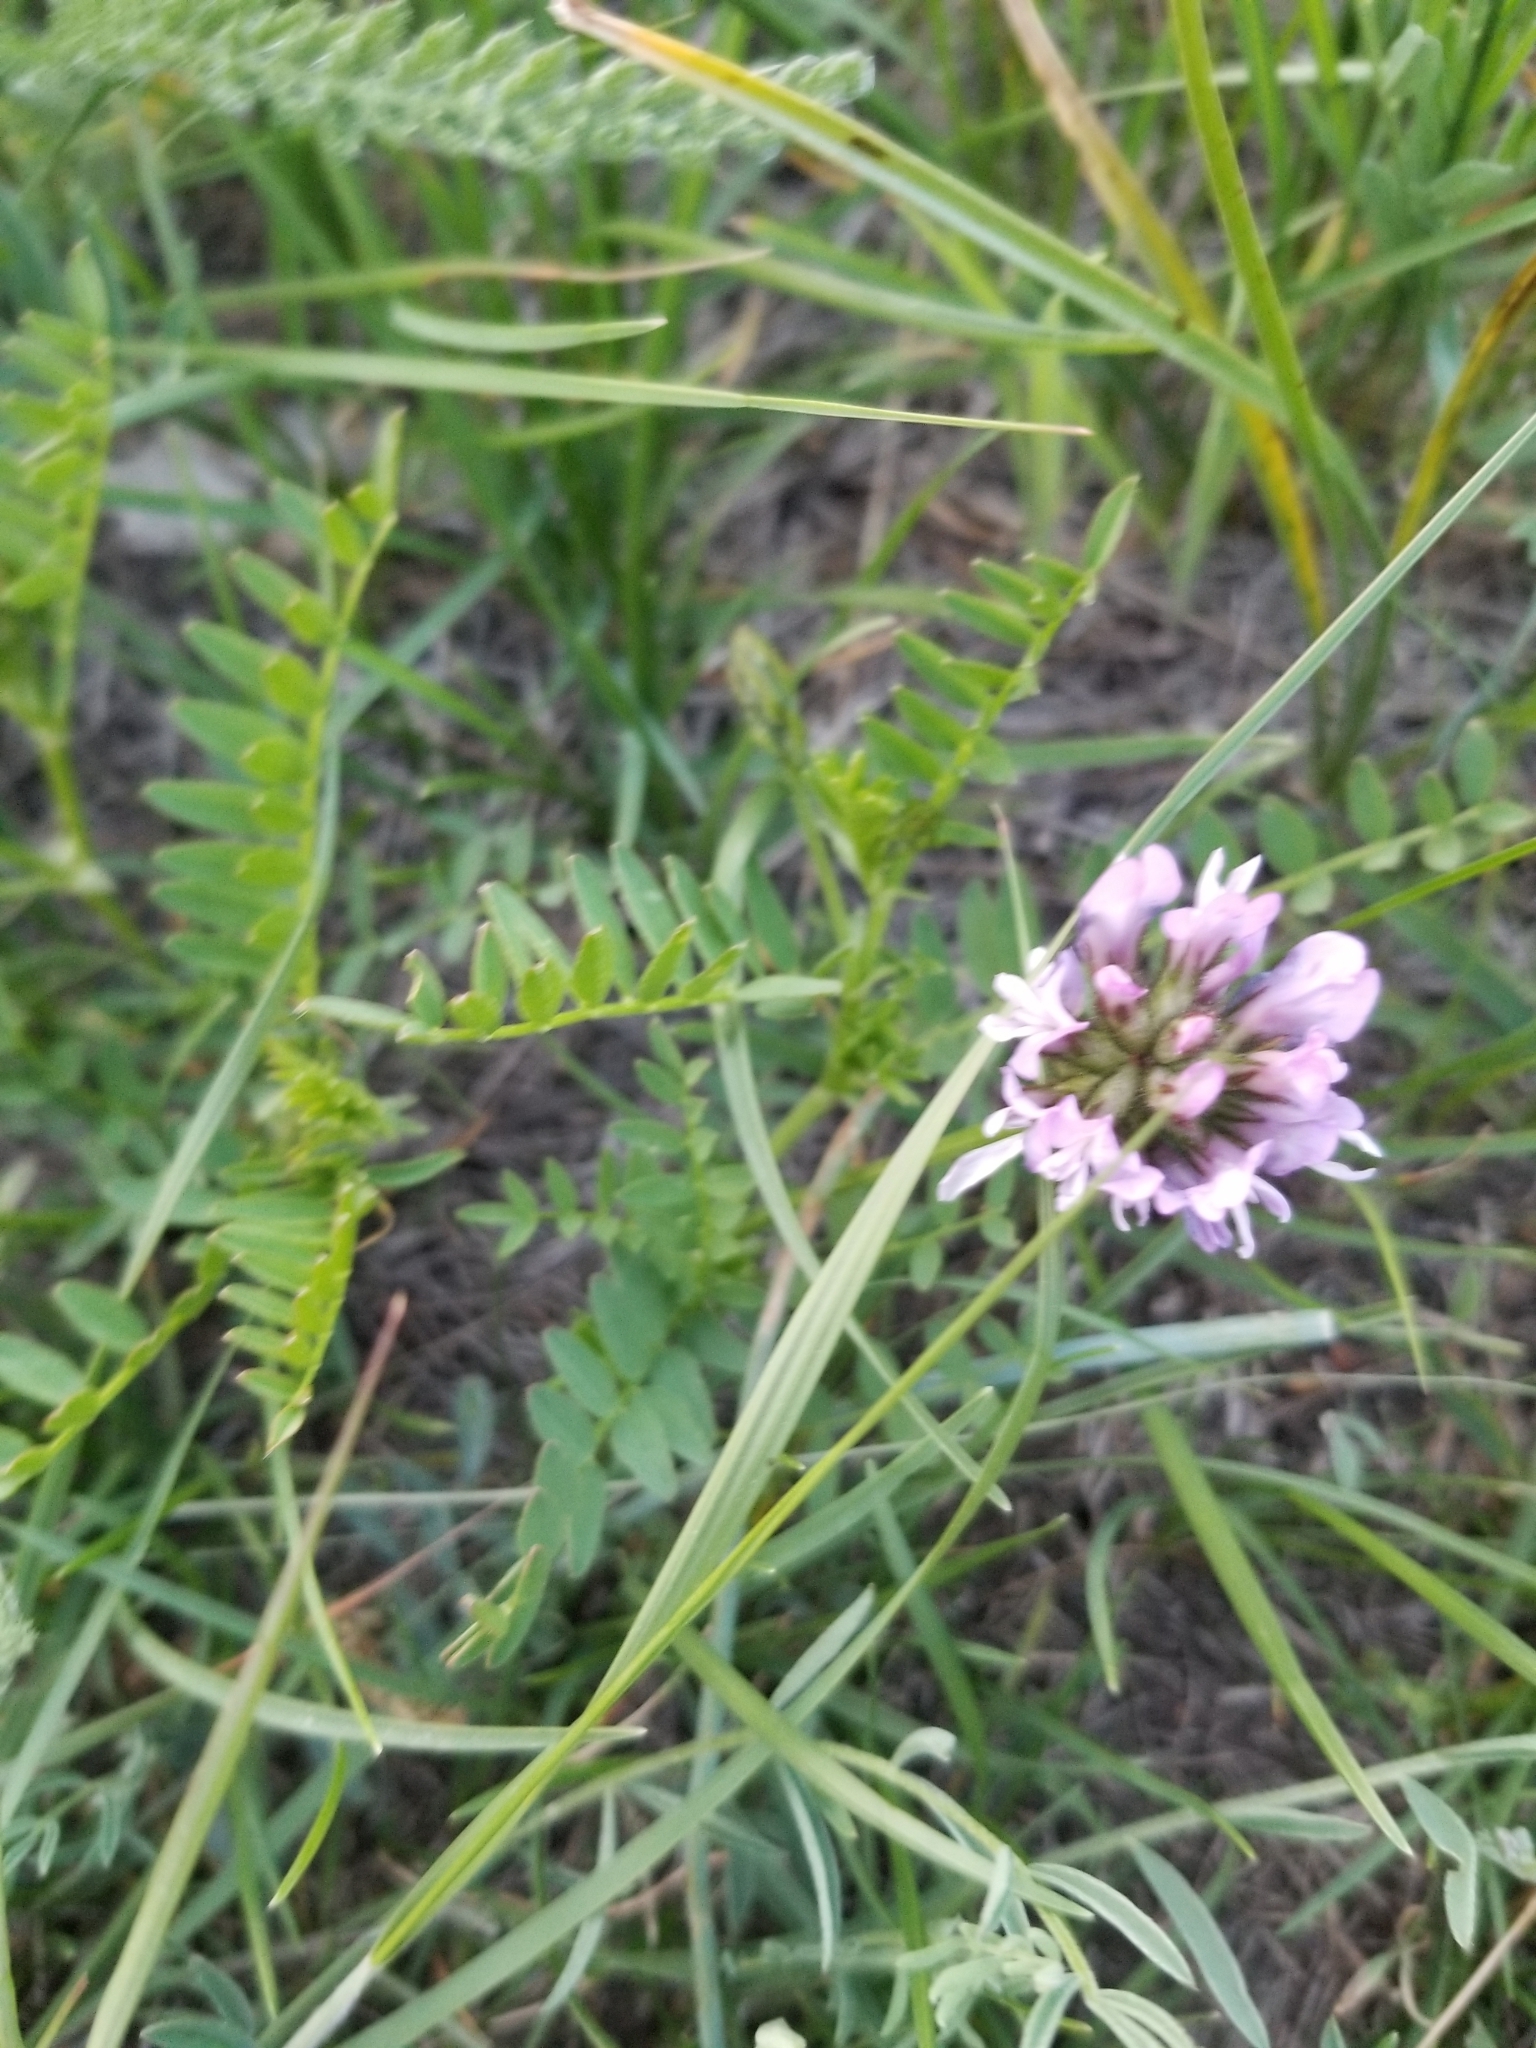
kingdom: Plantae
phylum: Tracheophyta
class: Magnoliopsida
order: Fabales
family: Fabaceae
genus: Astragalus
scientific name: Astragalus agrestis
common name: Field milk-vetch
